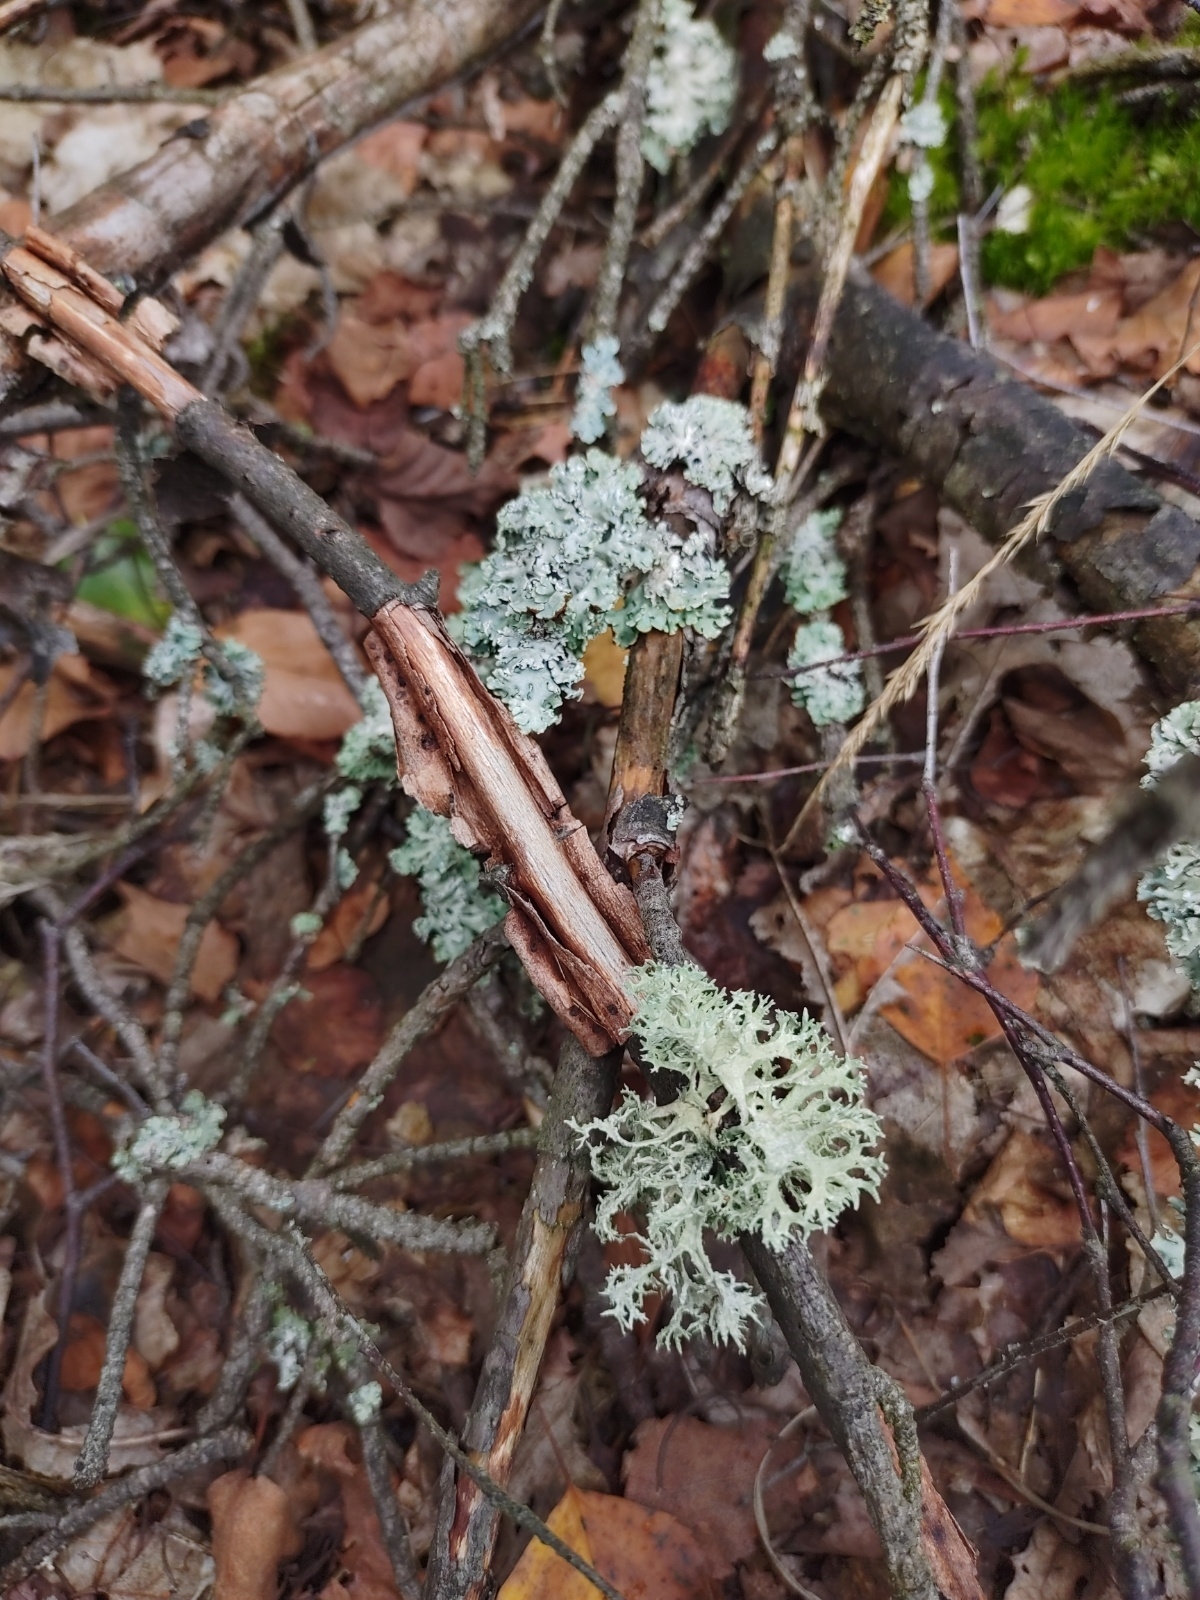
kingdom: Fungi
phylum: Ascomycota
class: Lecanoromycetes
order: Lecanorales
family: Parmeliaceae
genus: Evernia
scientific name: Evernia prunastri
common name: Oak moss
